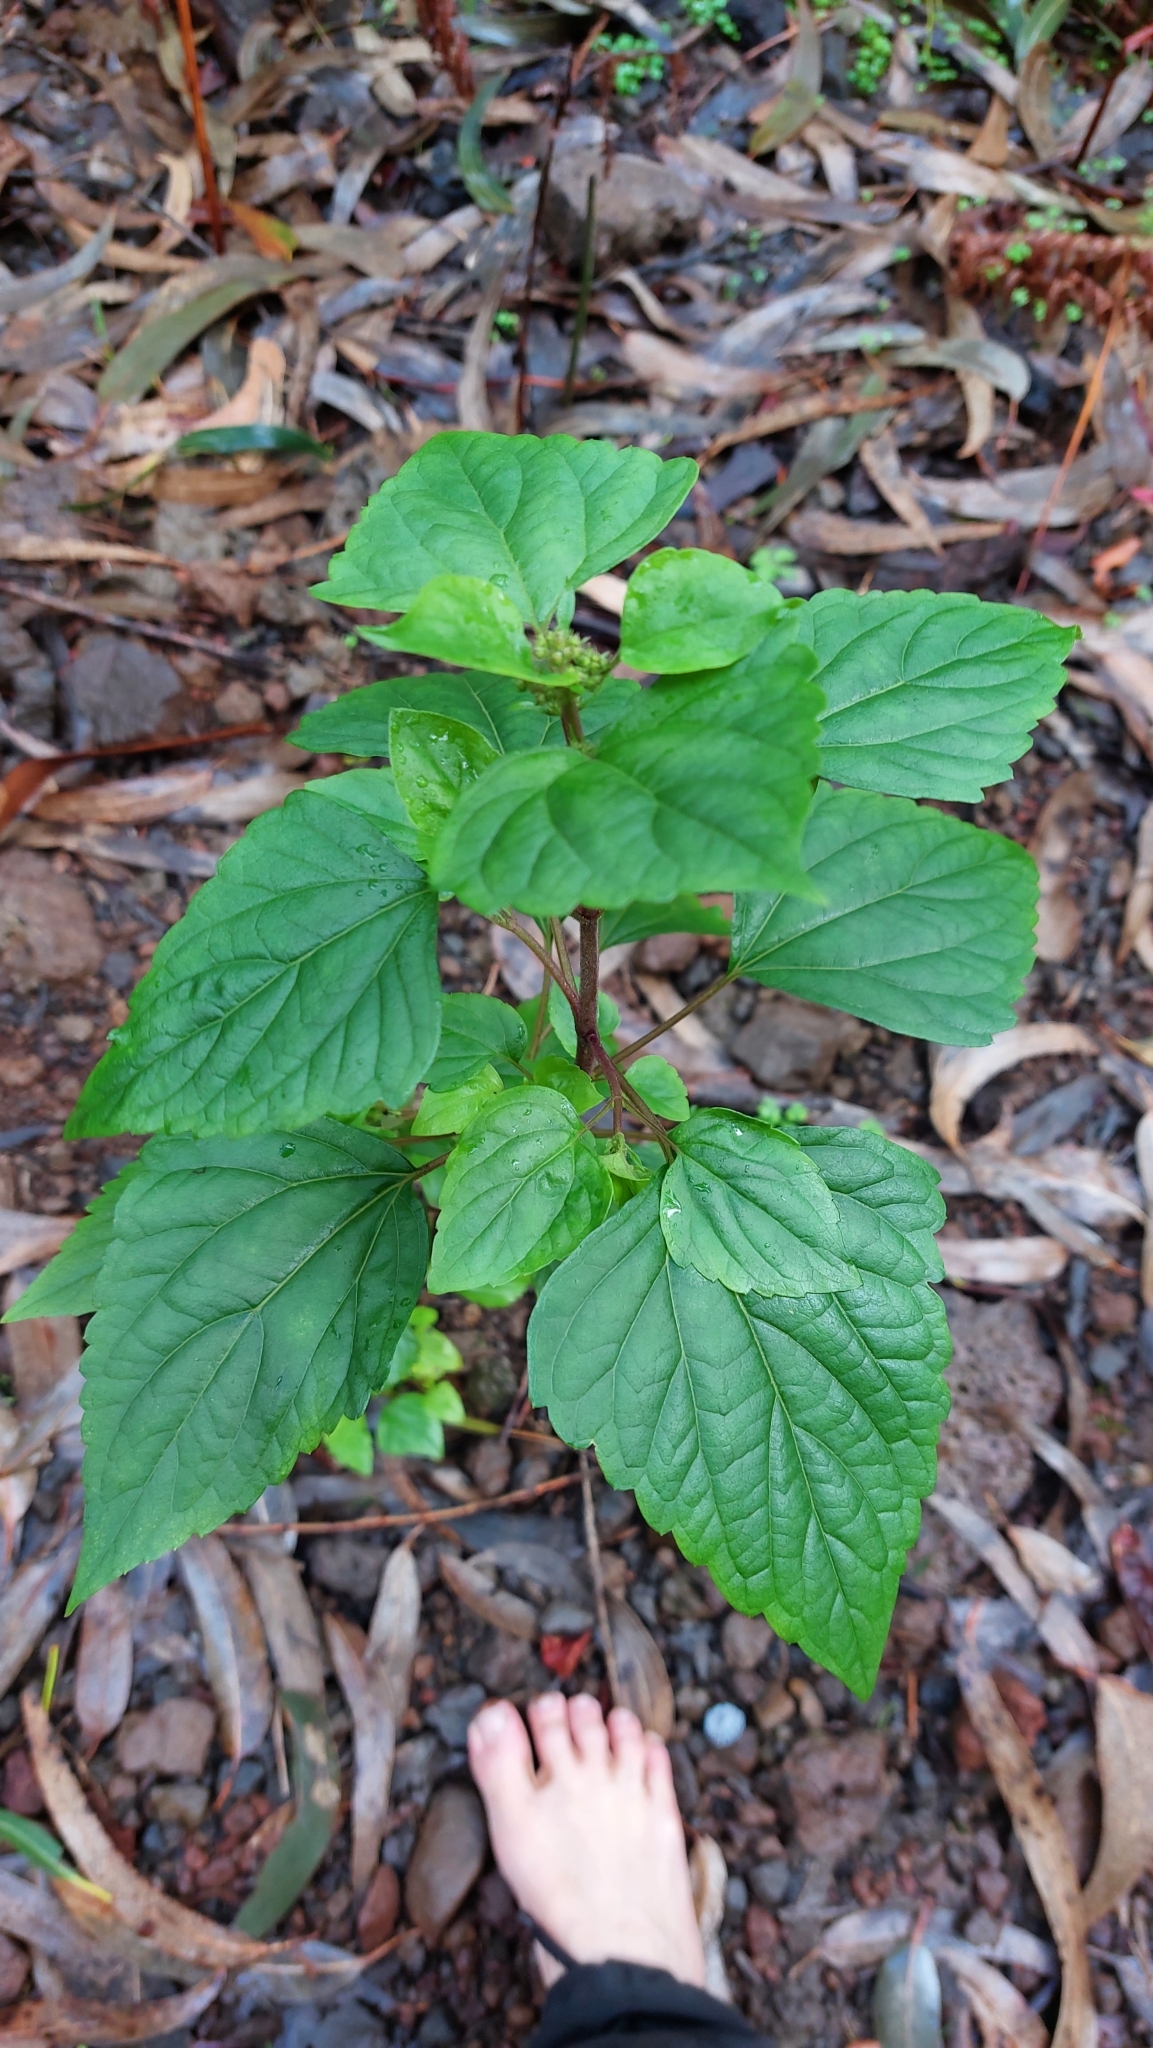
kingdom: Plantae
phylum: Tracheophyta
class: Magnoliopsida
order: Asterales
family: Asteraceae
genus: Ageratina
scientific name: Ageratina adenophora
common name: Sticky snakeroot
